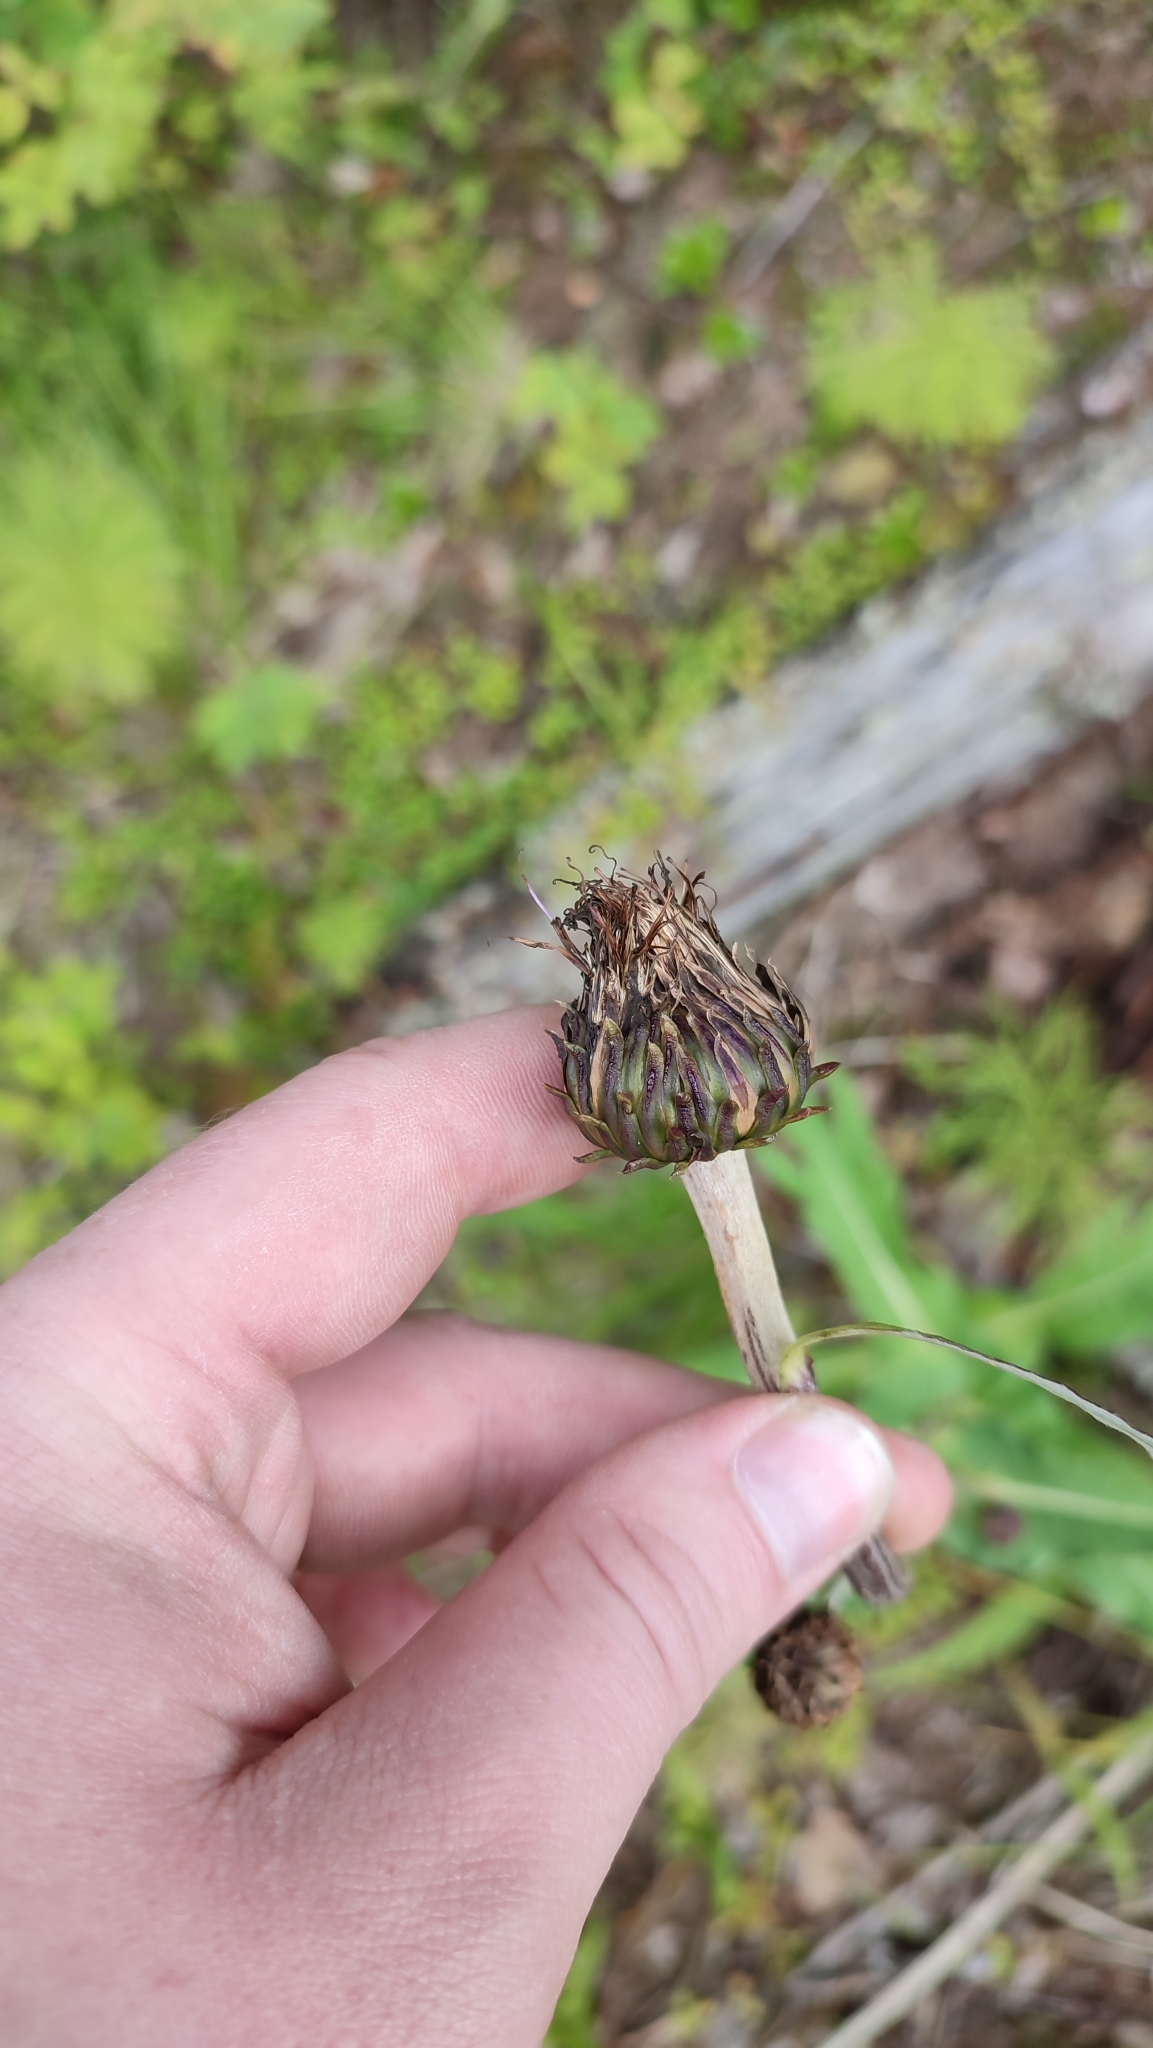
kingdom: Plantae
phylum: Tracheophyta
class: Magnoliopsida
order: Asterales
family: Asteraceae
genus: Cirsium
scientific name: Cirsium heterophyllum
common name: Melancholy thistle
